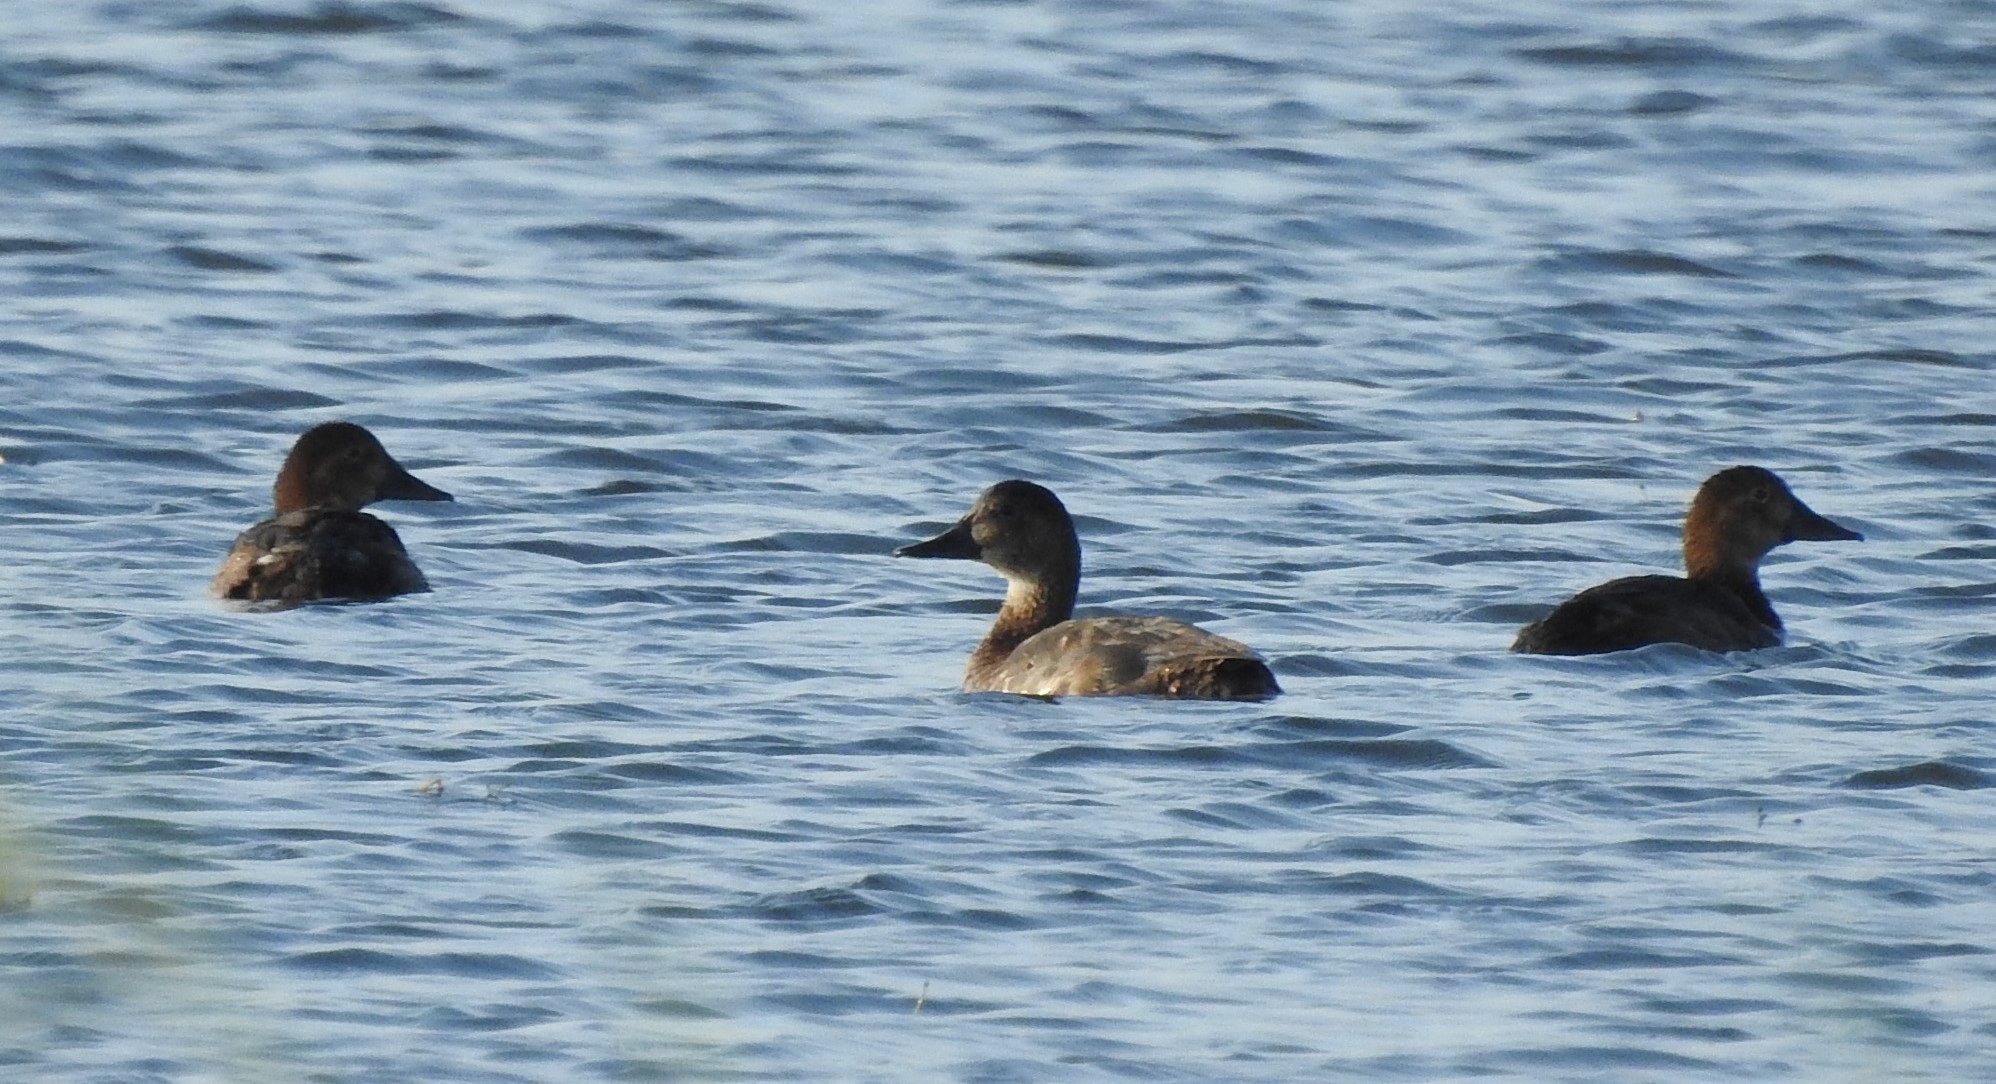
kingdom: Animalia
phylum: Chordata
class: Aves
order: Anseriformes
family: Anatidae
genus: Aythya
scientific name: Aythya ferina
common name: Common pochard
